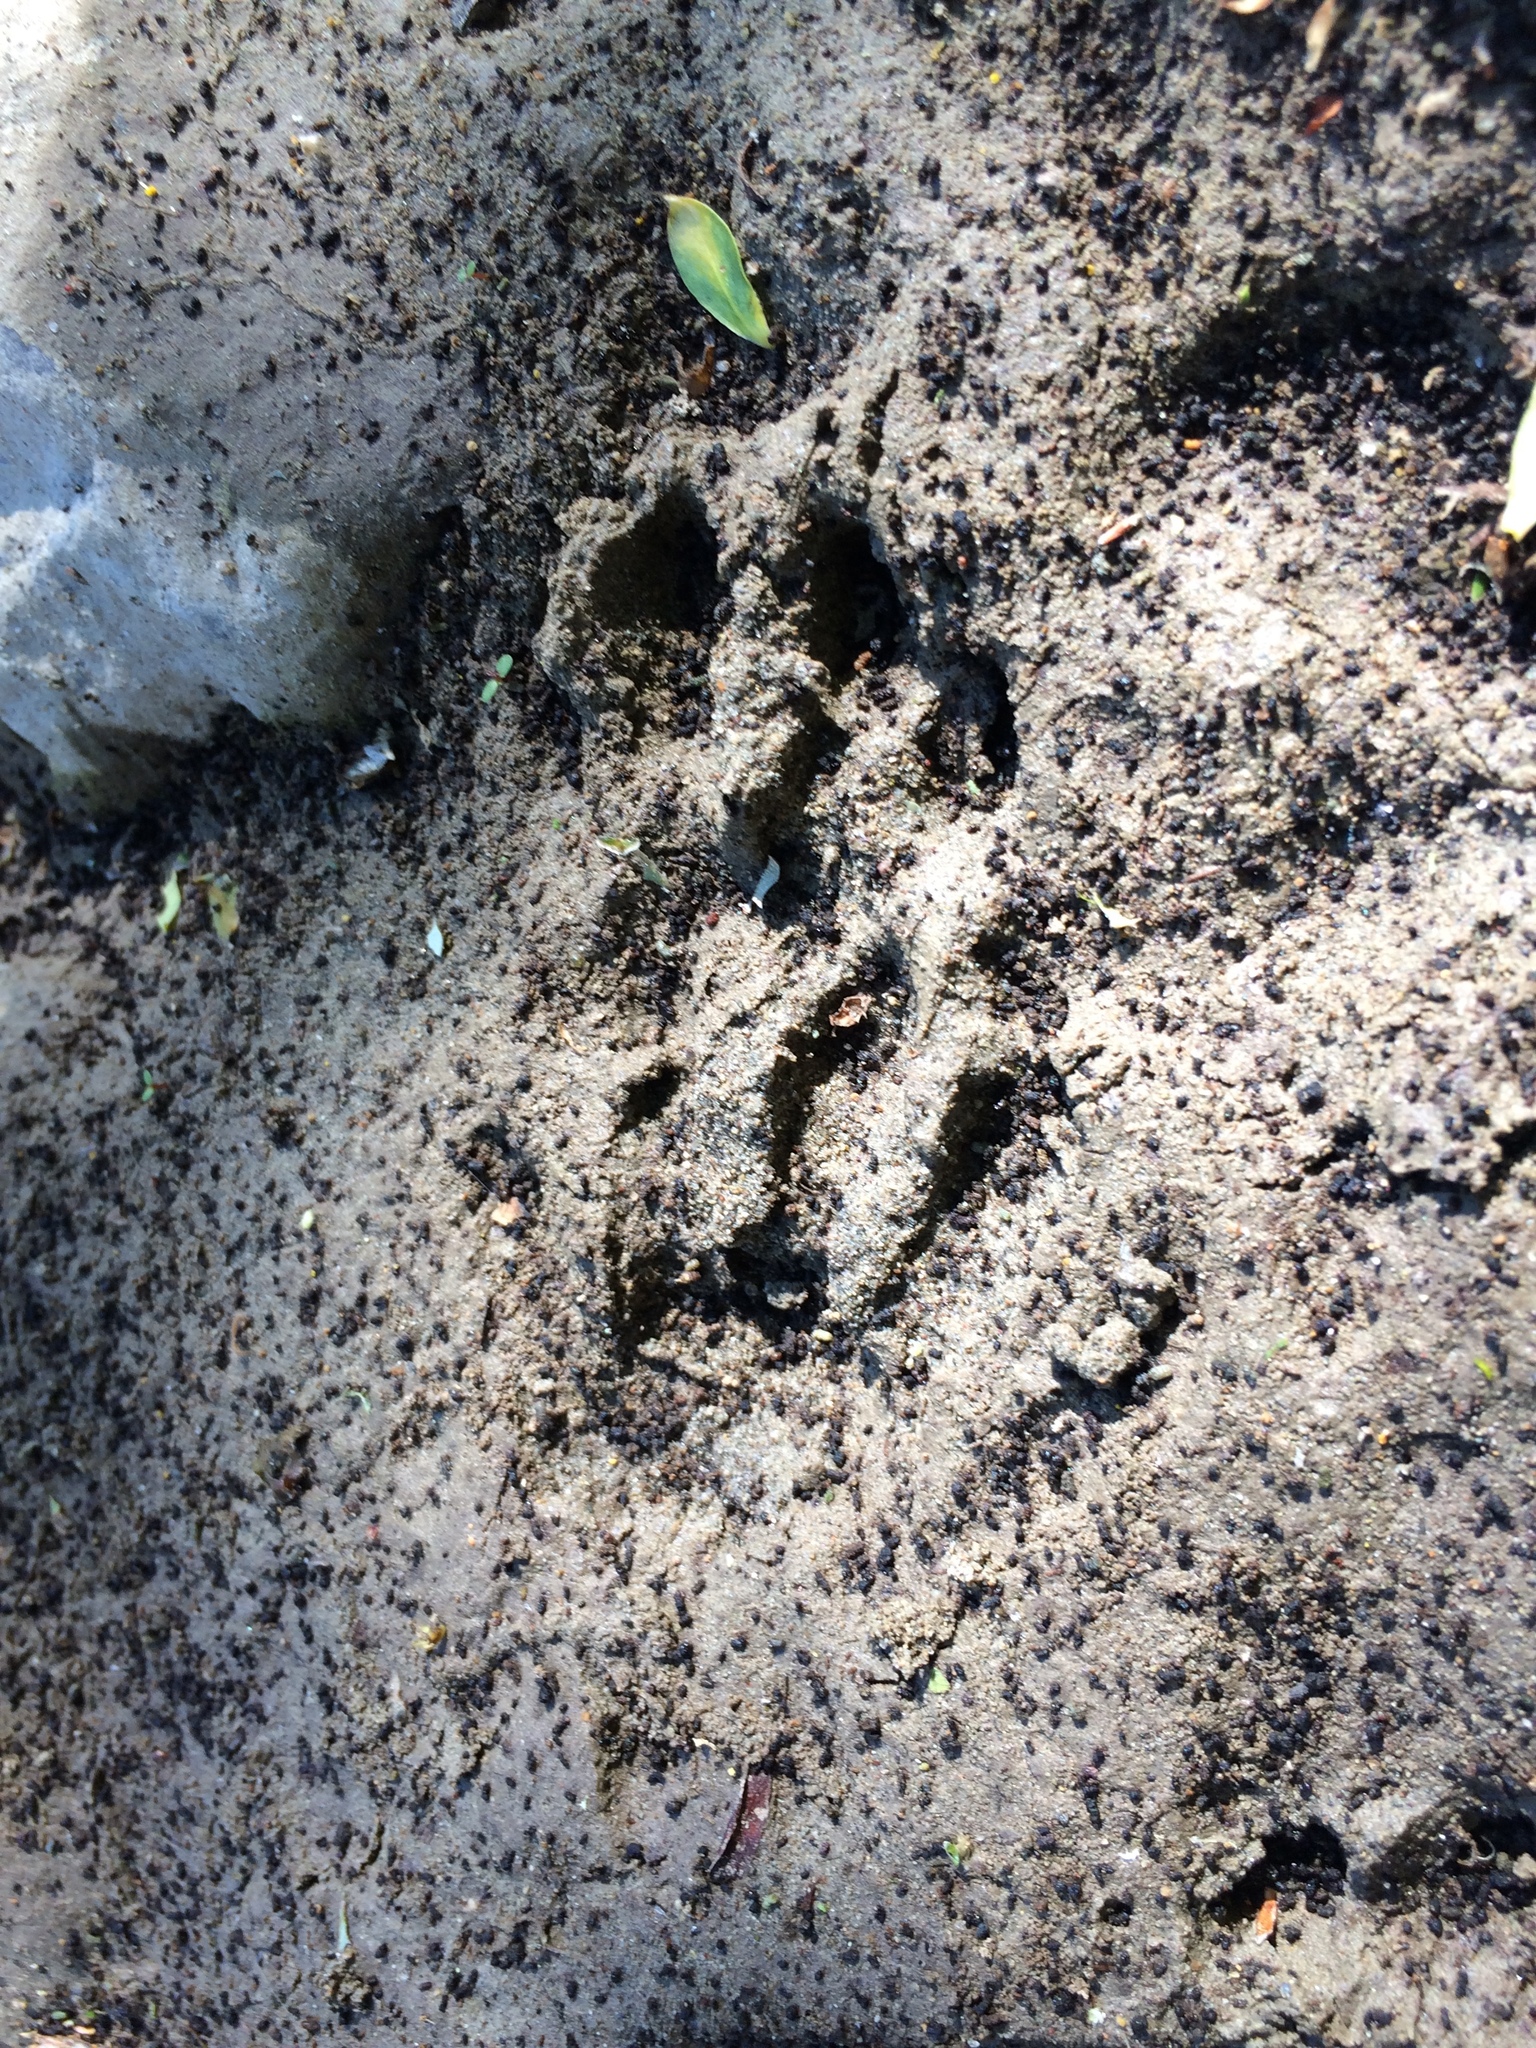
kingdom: Animalia
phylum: Chordata
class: Mammalia
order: Carnivora
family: Procyonidae
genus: Procyon
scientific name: Procyon lotor
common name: Raccoon
